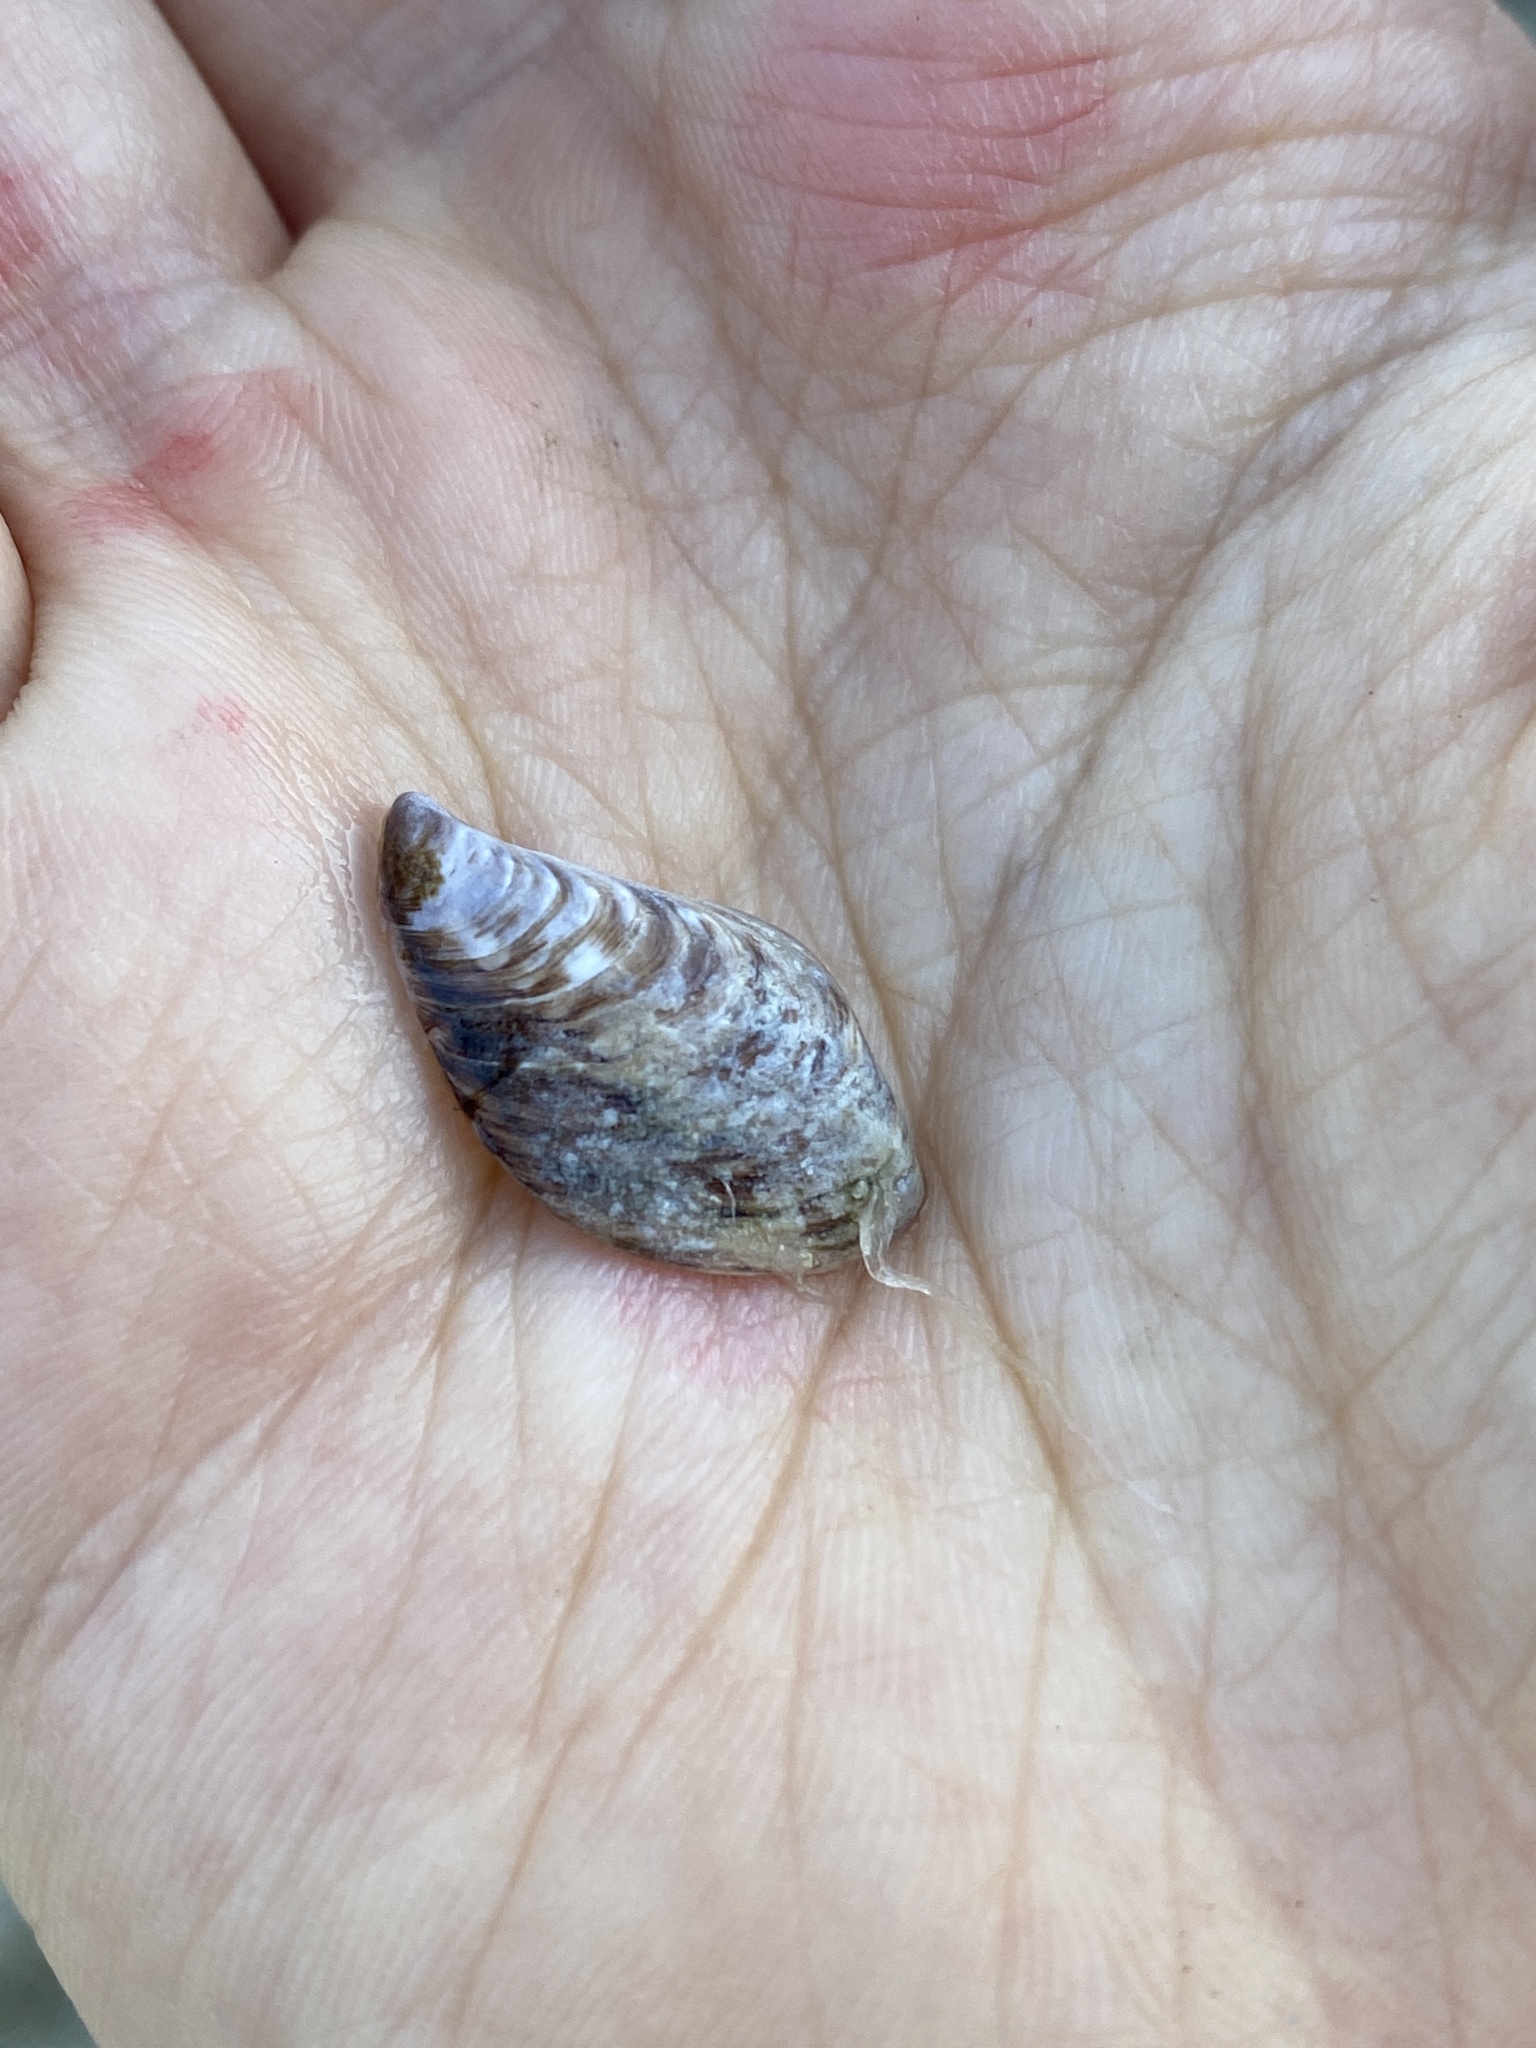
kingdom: Animalia
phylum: Mollusca
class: Bivalvia
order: Myida
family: Dreissenidae
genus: Dreissena
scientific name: Dreissena bugensis
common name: Quagga mussel
